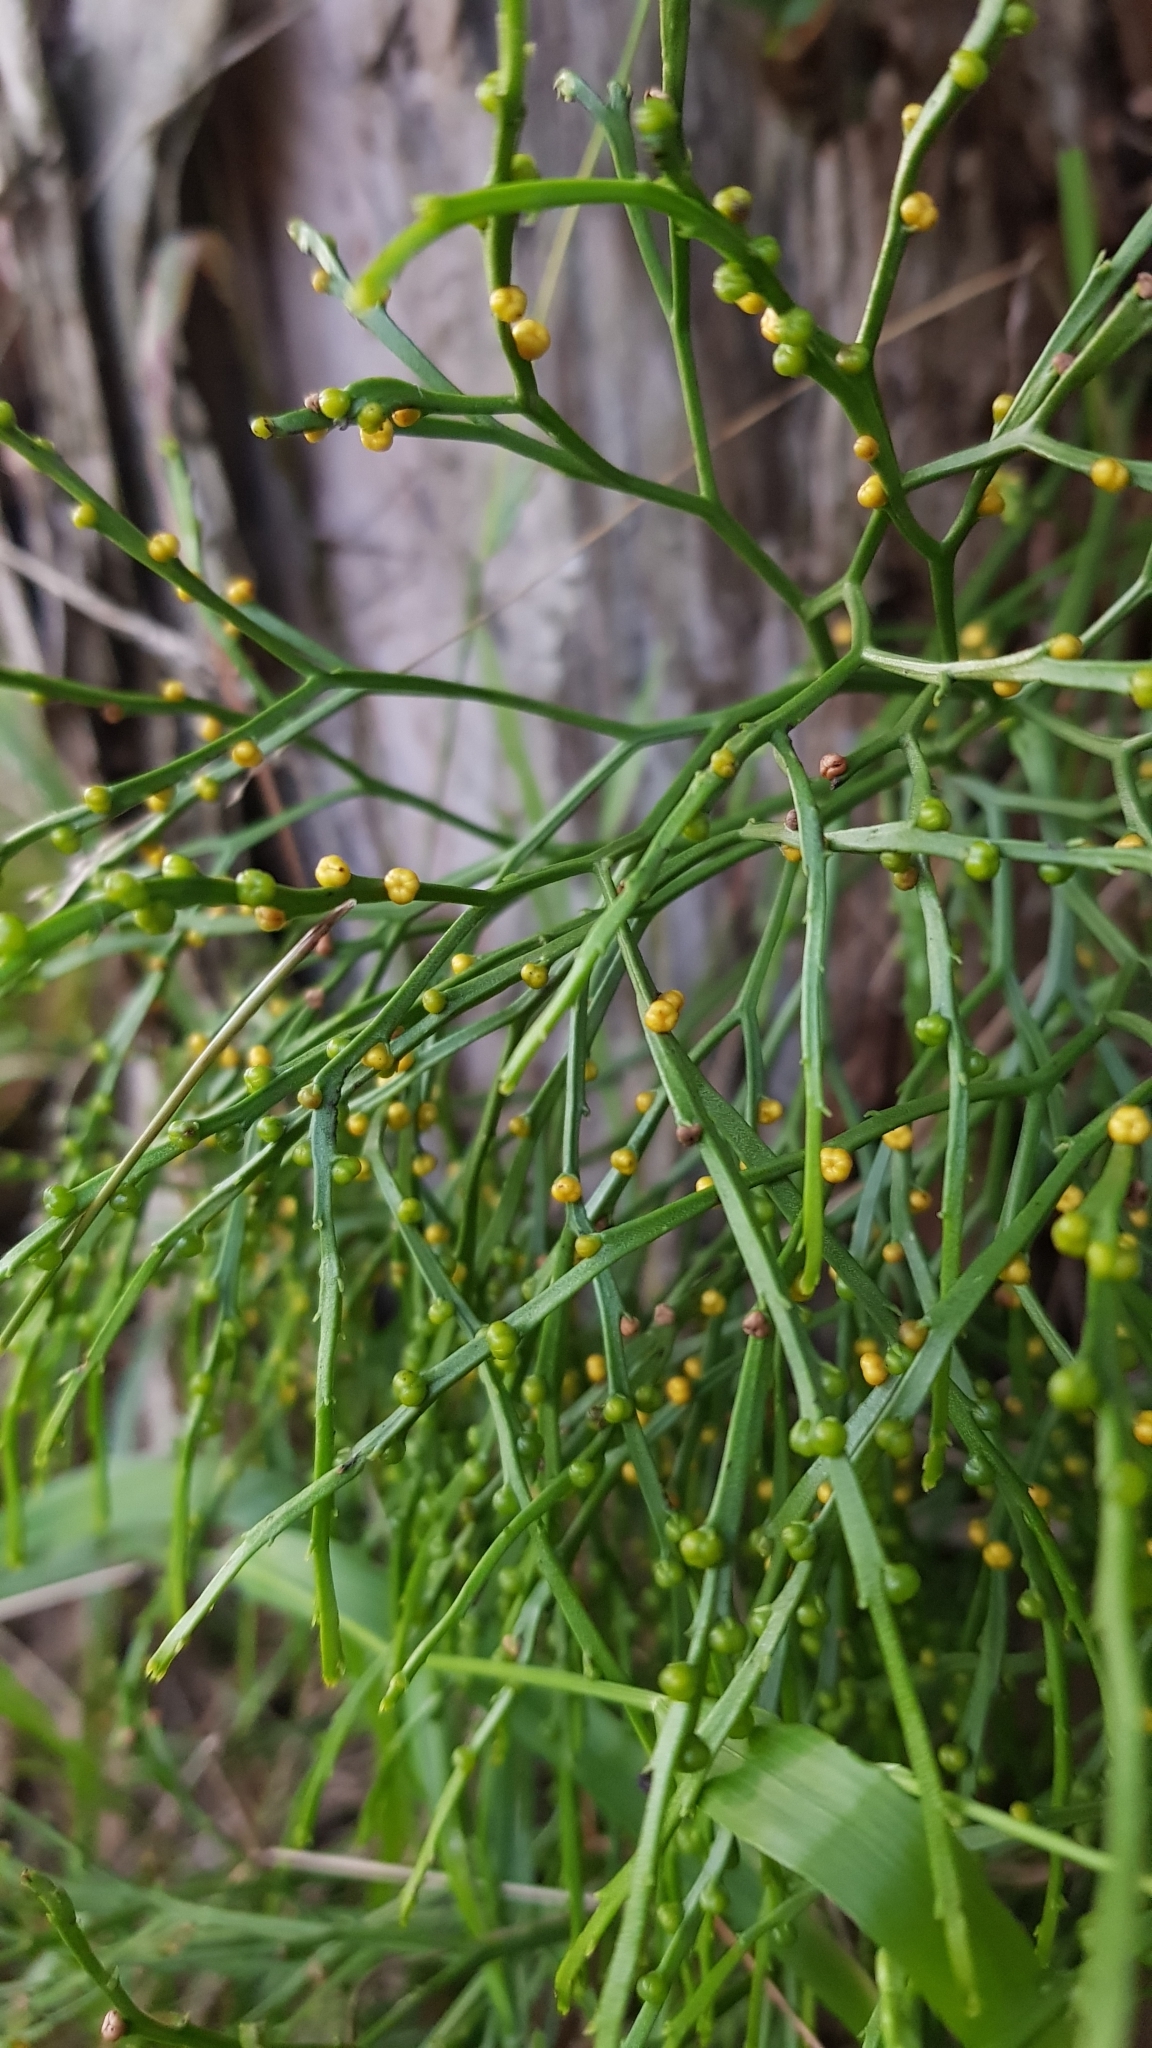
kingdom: Plantae
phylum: Tracheophyta
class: Polypodiopsida
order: Psilotales
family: Psilotaceae
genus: Psilotum
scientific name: Psilotum nudum
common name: Skeleton fork fern
